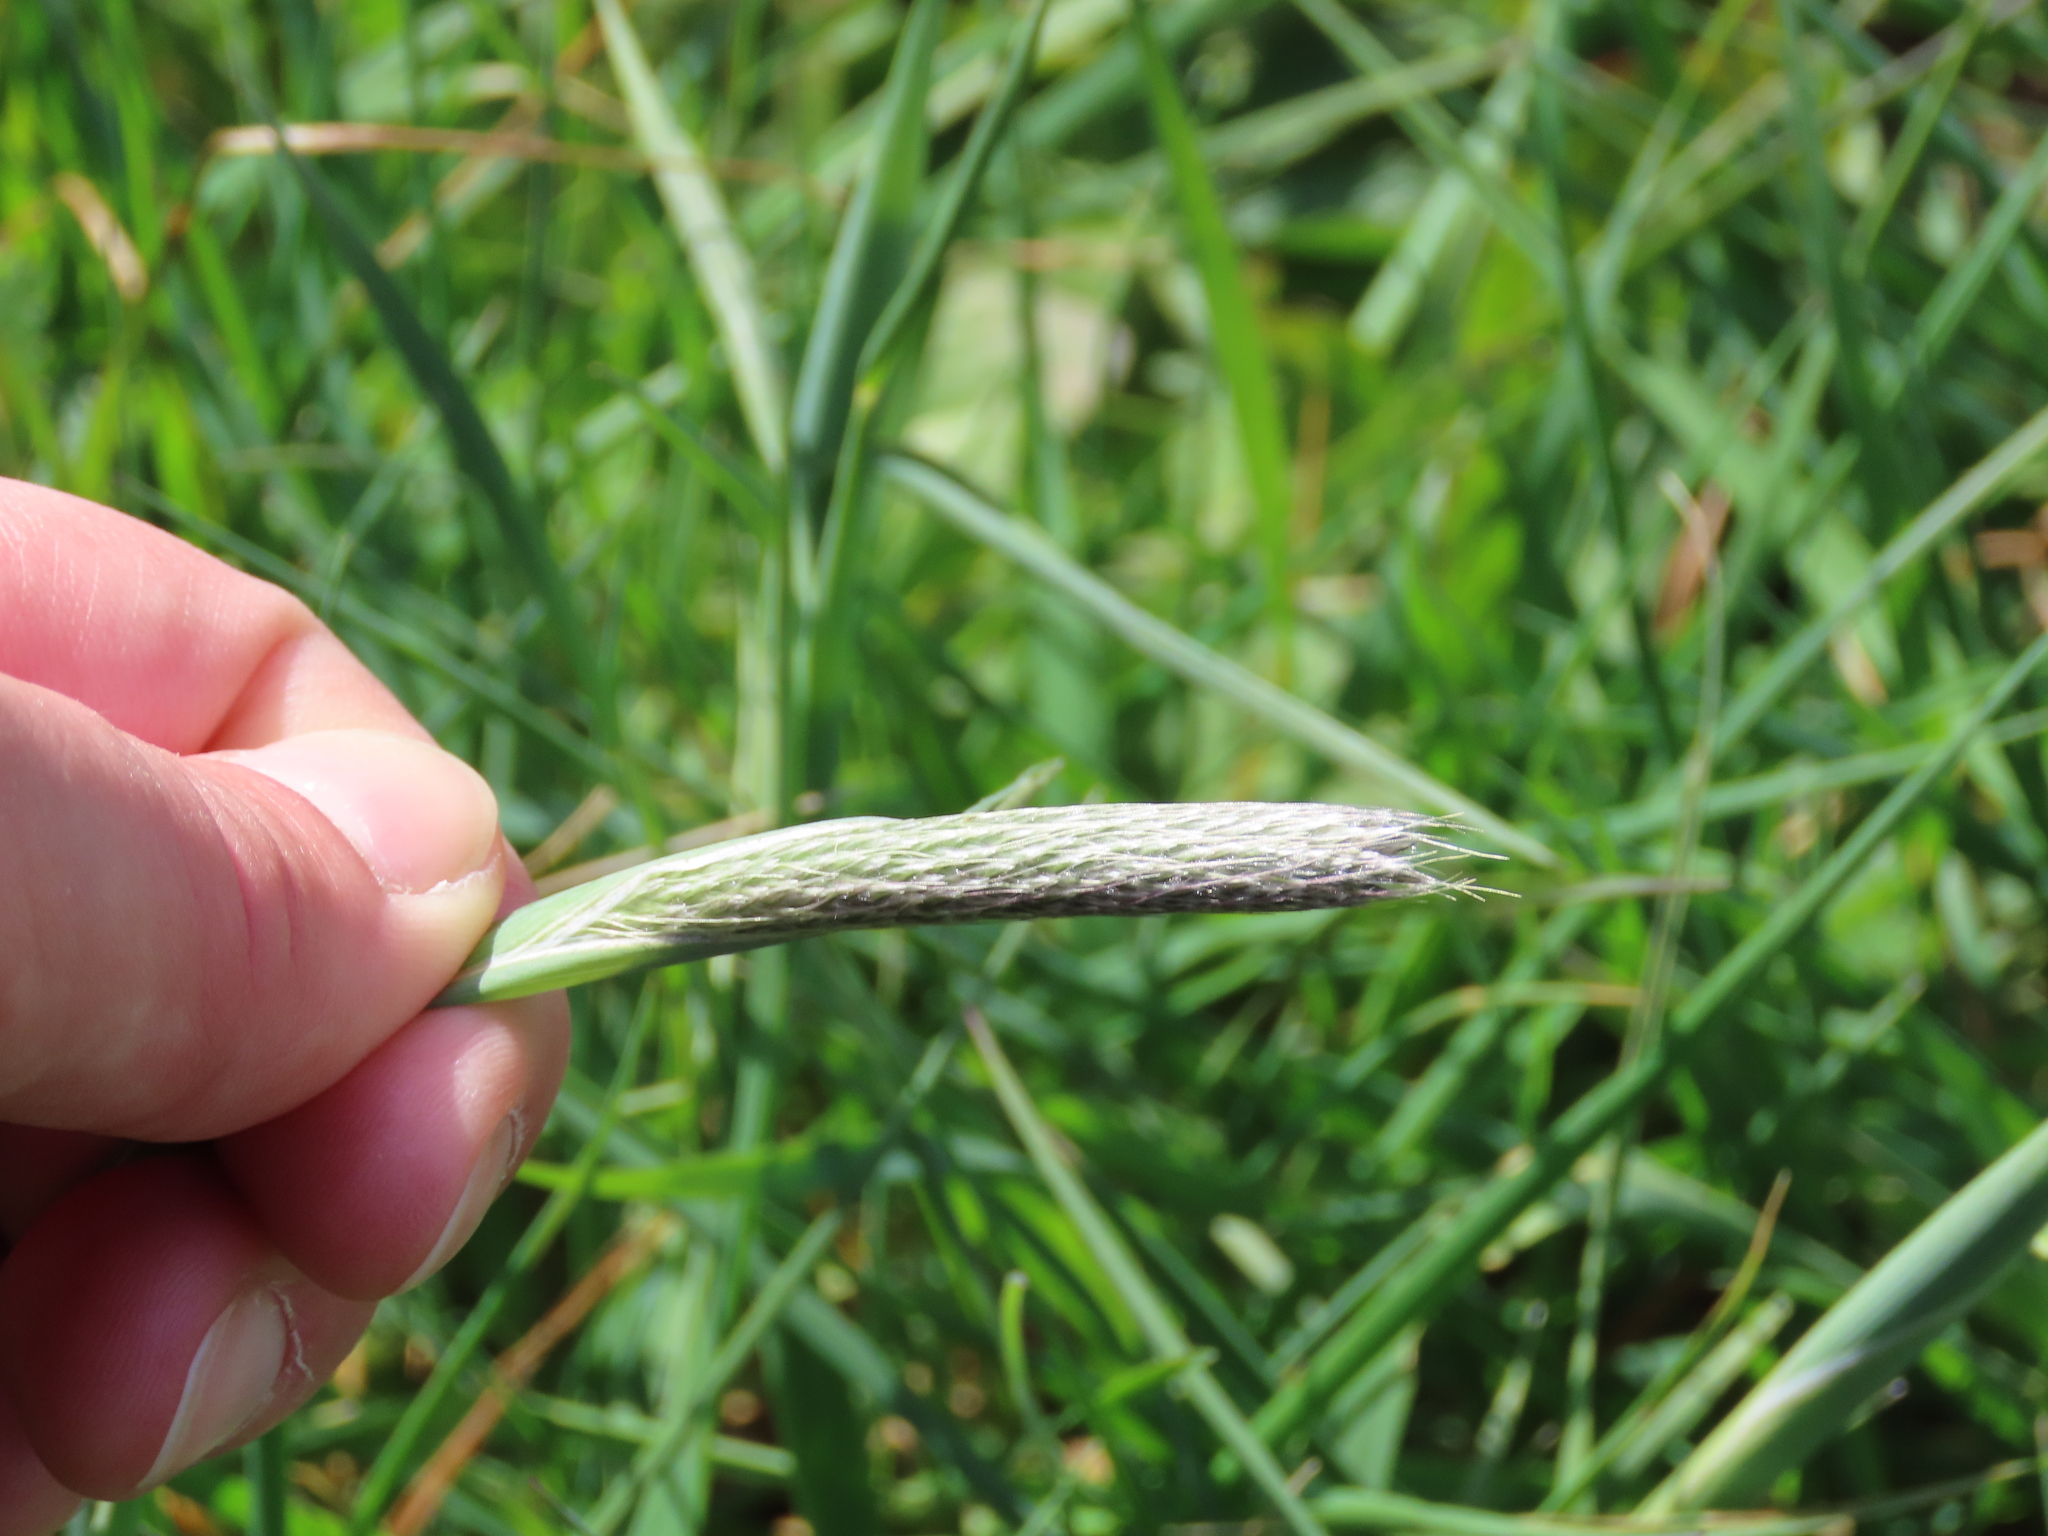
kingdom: Plantae
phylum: Tracheophyta
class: Liliopsida
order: Poales
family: Poaceae
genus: Alopecurus
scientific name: Alopecurus pratensis
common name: Meadow foxtail
